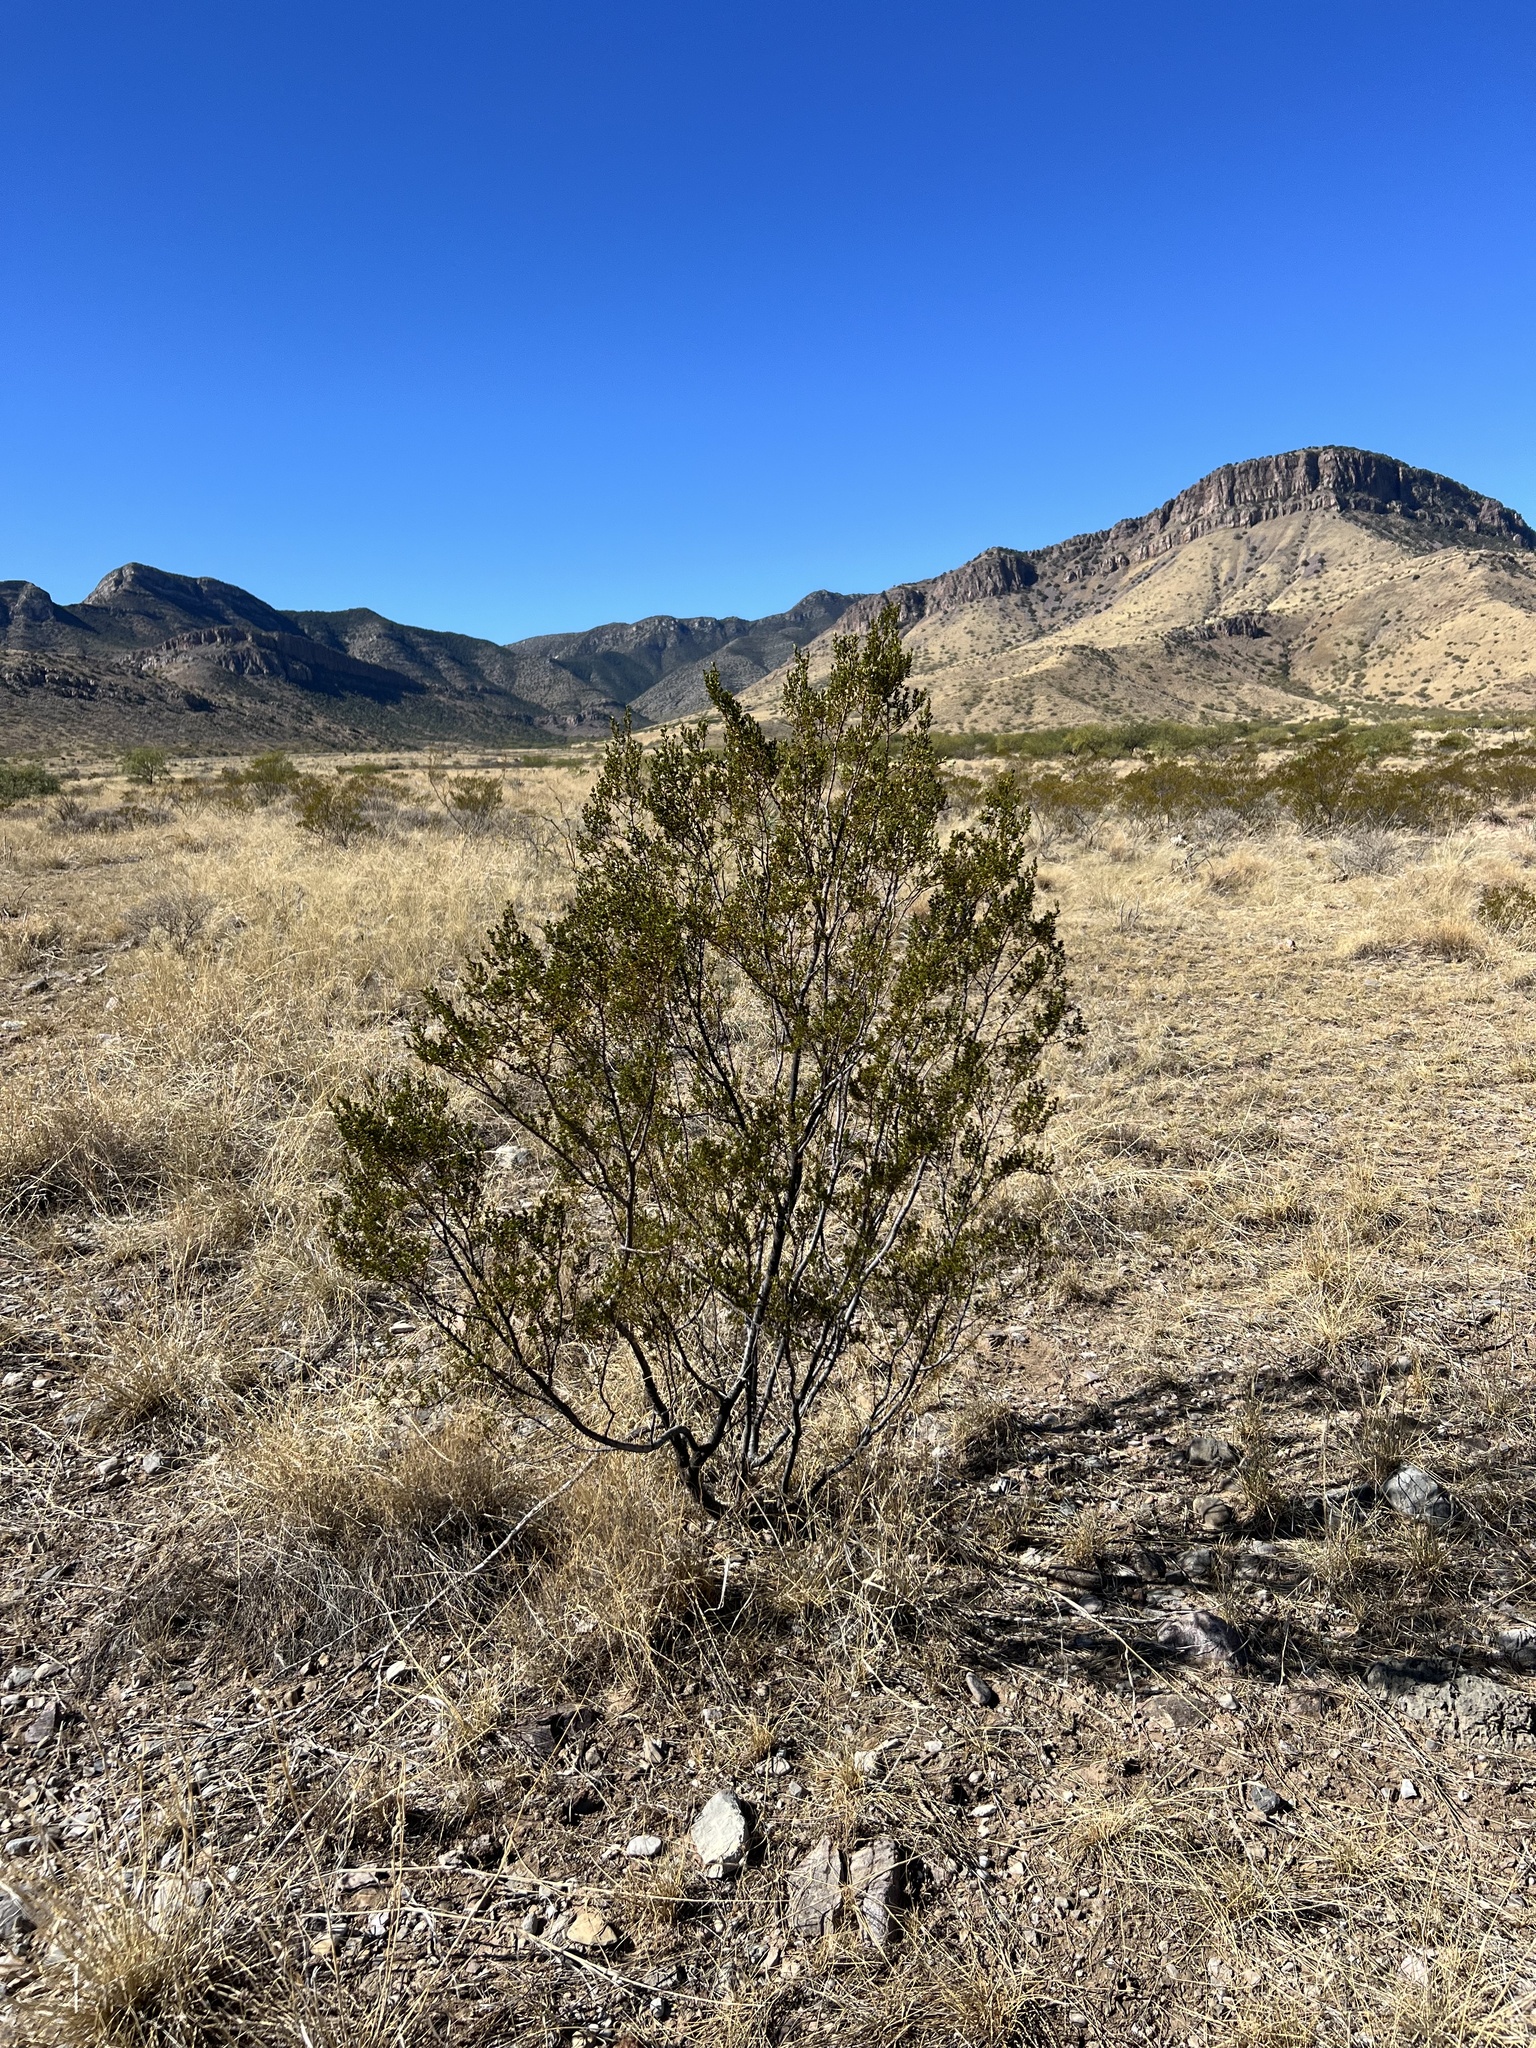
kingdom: Plantae
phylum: Tracheophyta
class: Magnoliopsida
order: Zygophyllales
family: Zygophyllaceae
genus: Larrea
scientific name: Larrea tridentata
